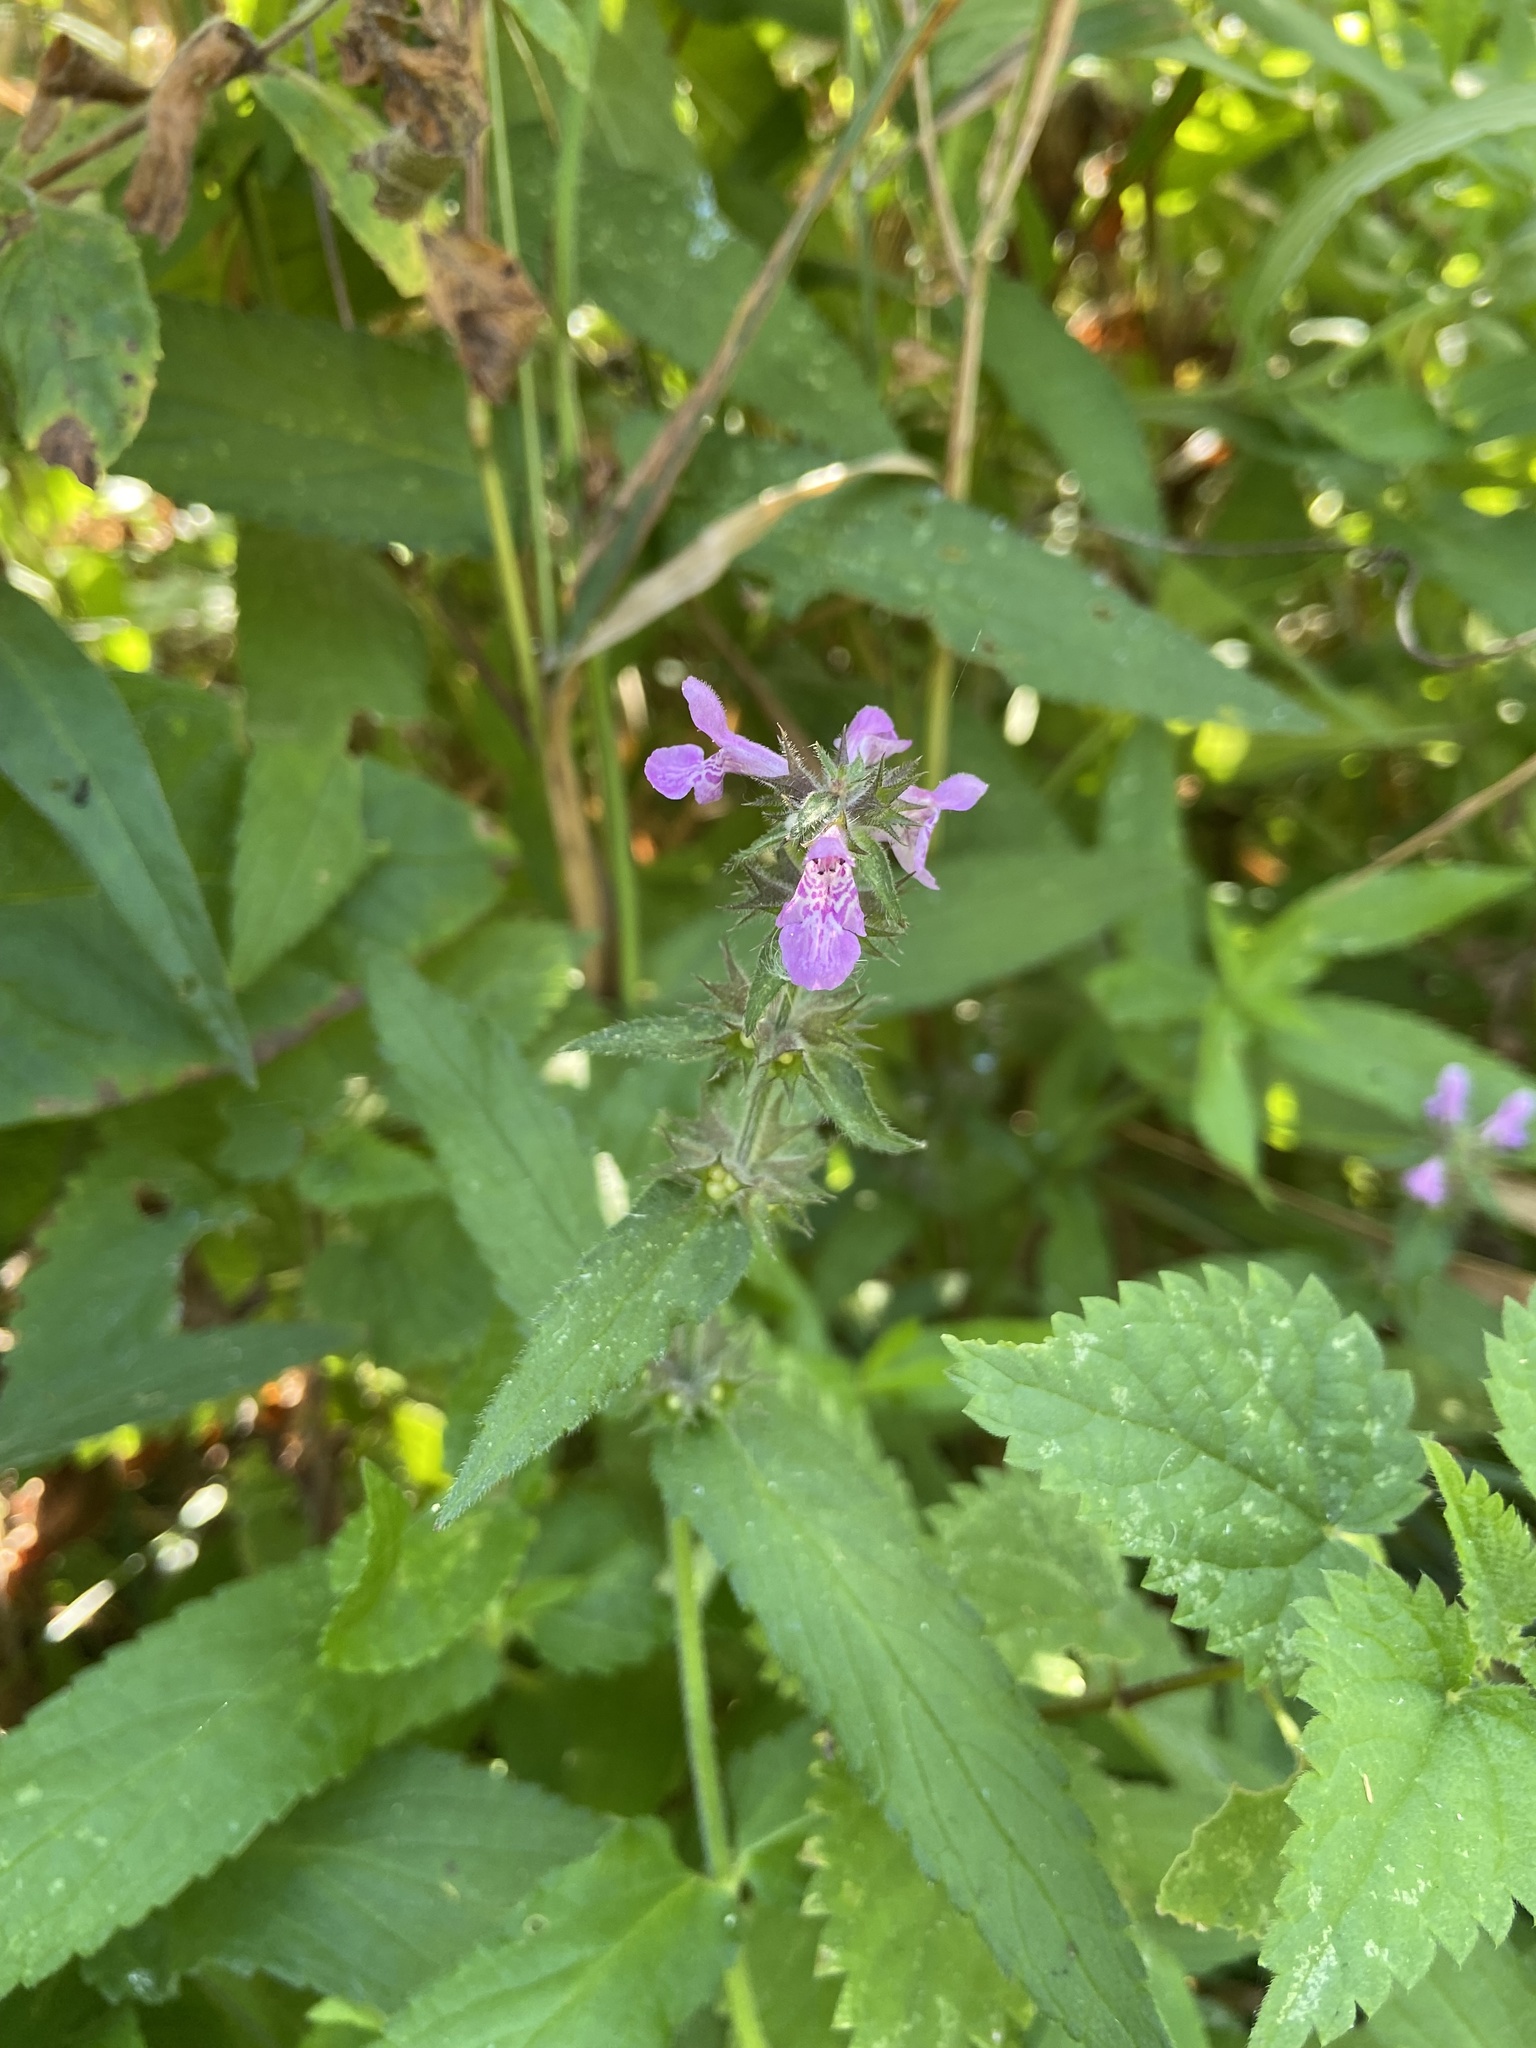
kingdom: Plantae
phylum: Tracheophyta
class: Magnoliopsida
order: Lamiales
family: Lamiaceae
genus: Stachys
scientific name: Stachys palustris
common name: Marsh woundwort
